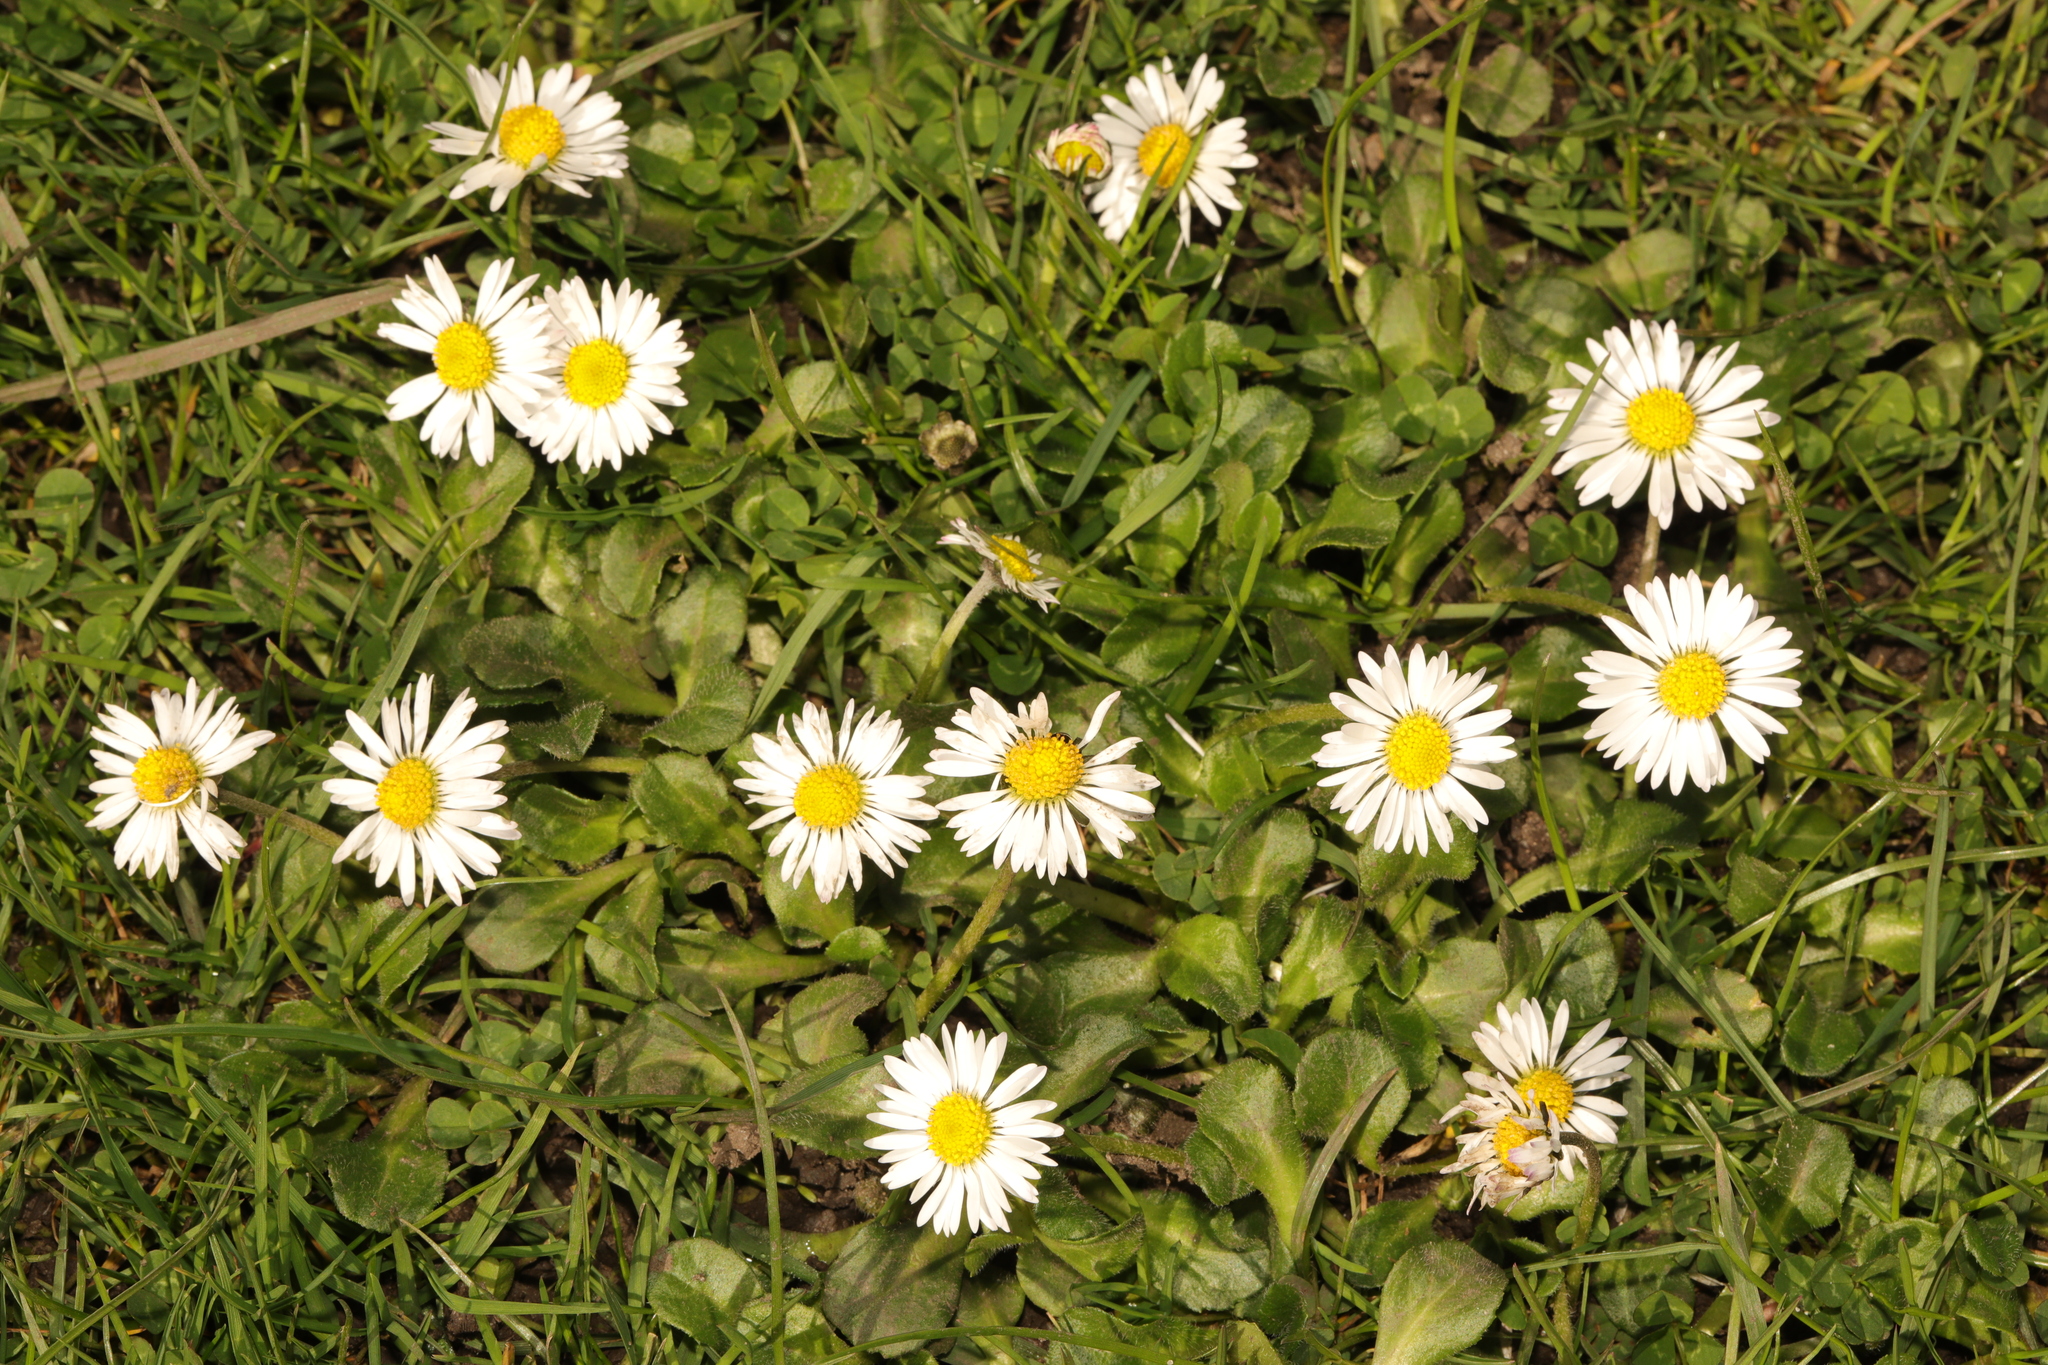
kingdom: Plantae
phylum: Tracheophyta
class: Magnoliopsida
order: Asterales
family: Asteraceae
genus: Bellis
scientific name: Bellis perennis
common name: Lawndaisy
